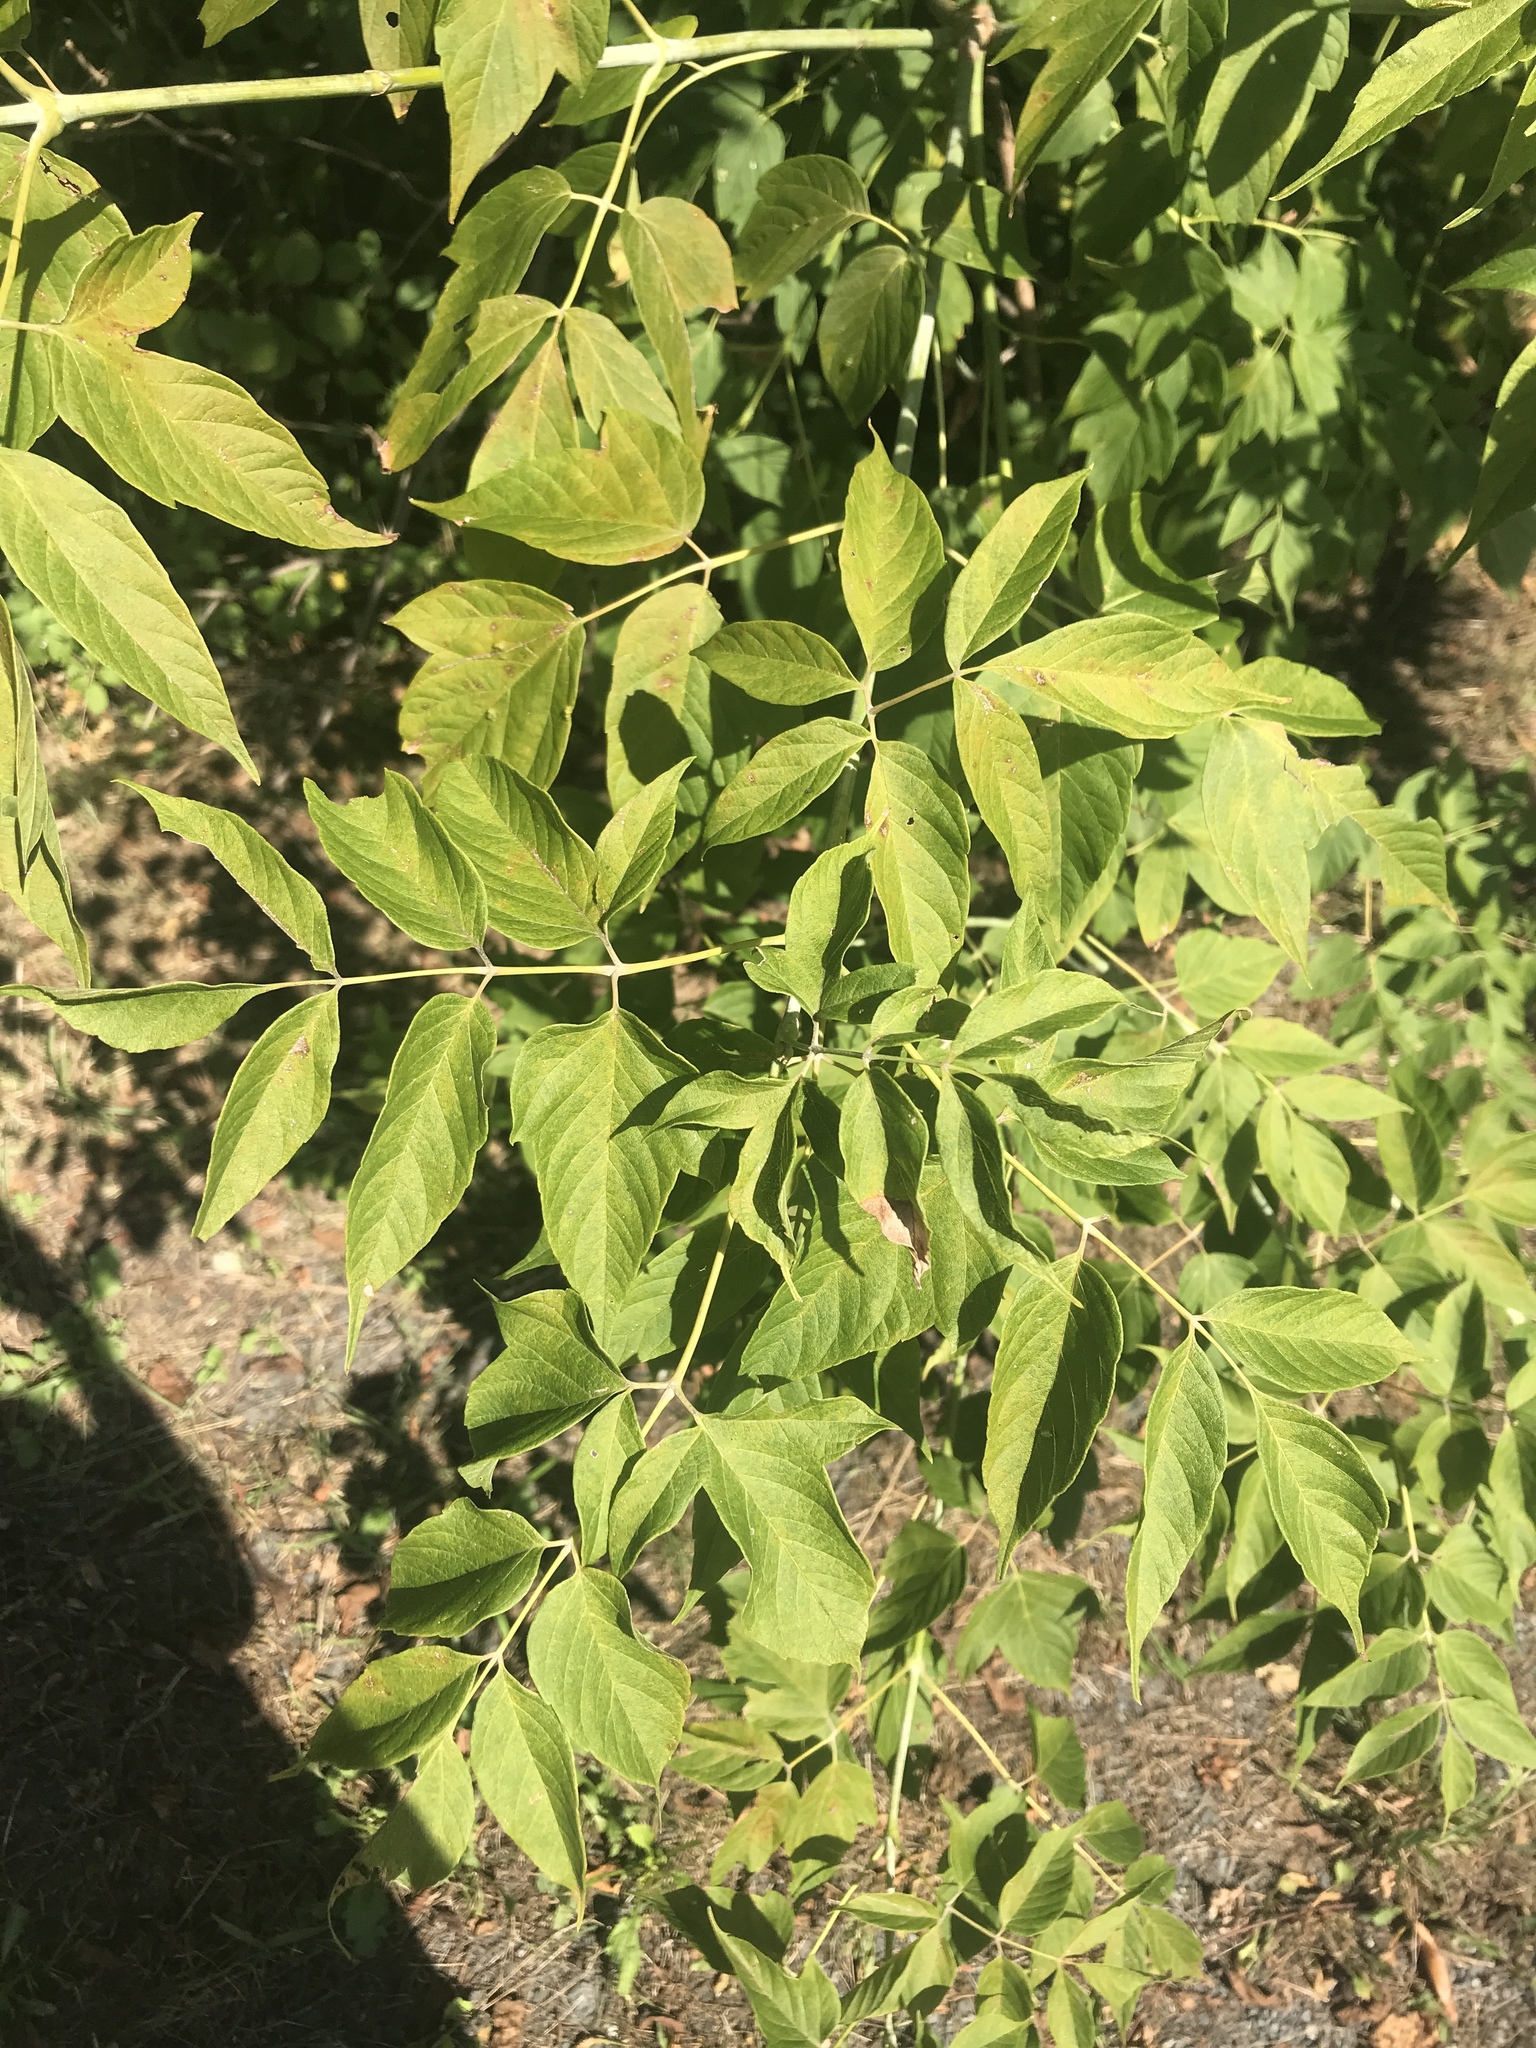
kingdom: Plantae
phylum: Tracheophyta
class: Magnoliopsida
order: Sapindales
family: Sapindaceae
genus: Acer
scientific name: Acer negundo
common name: Ashleaf maple
